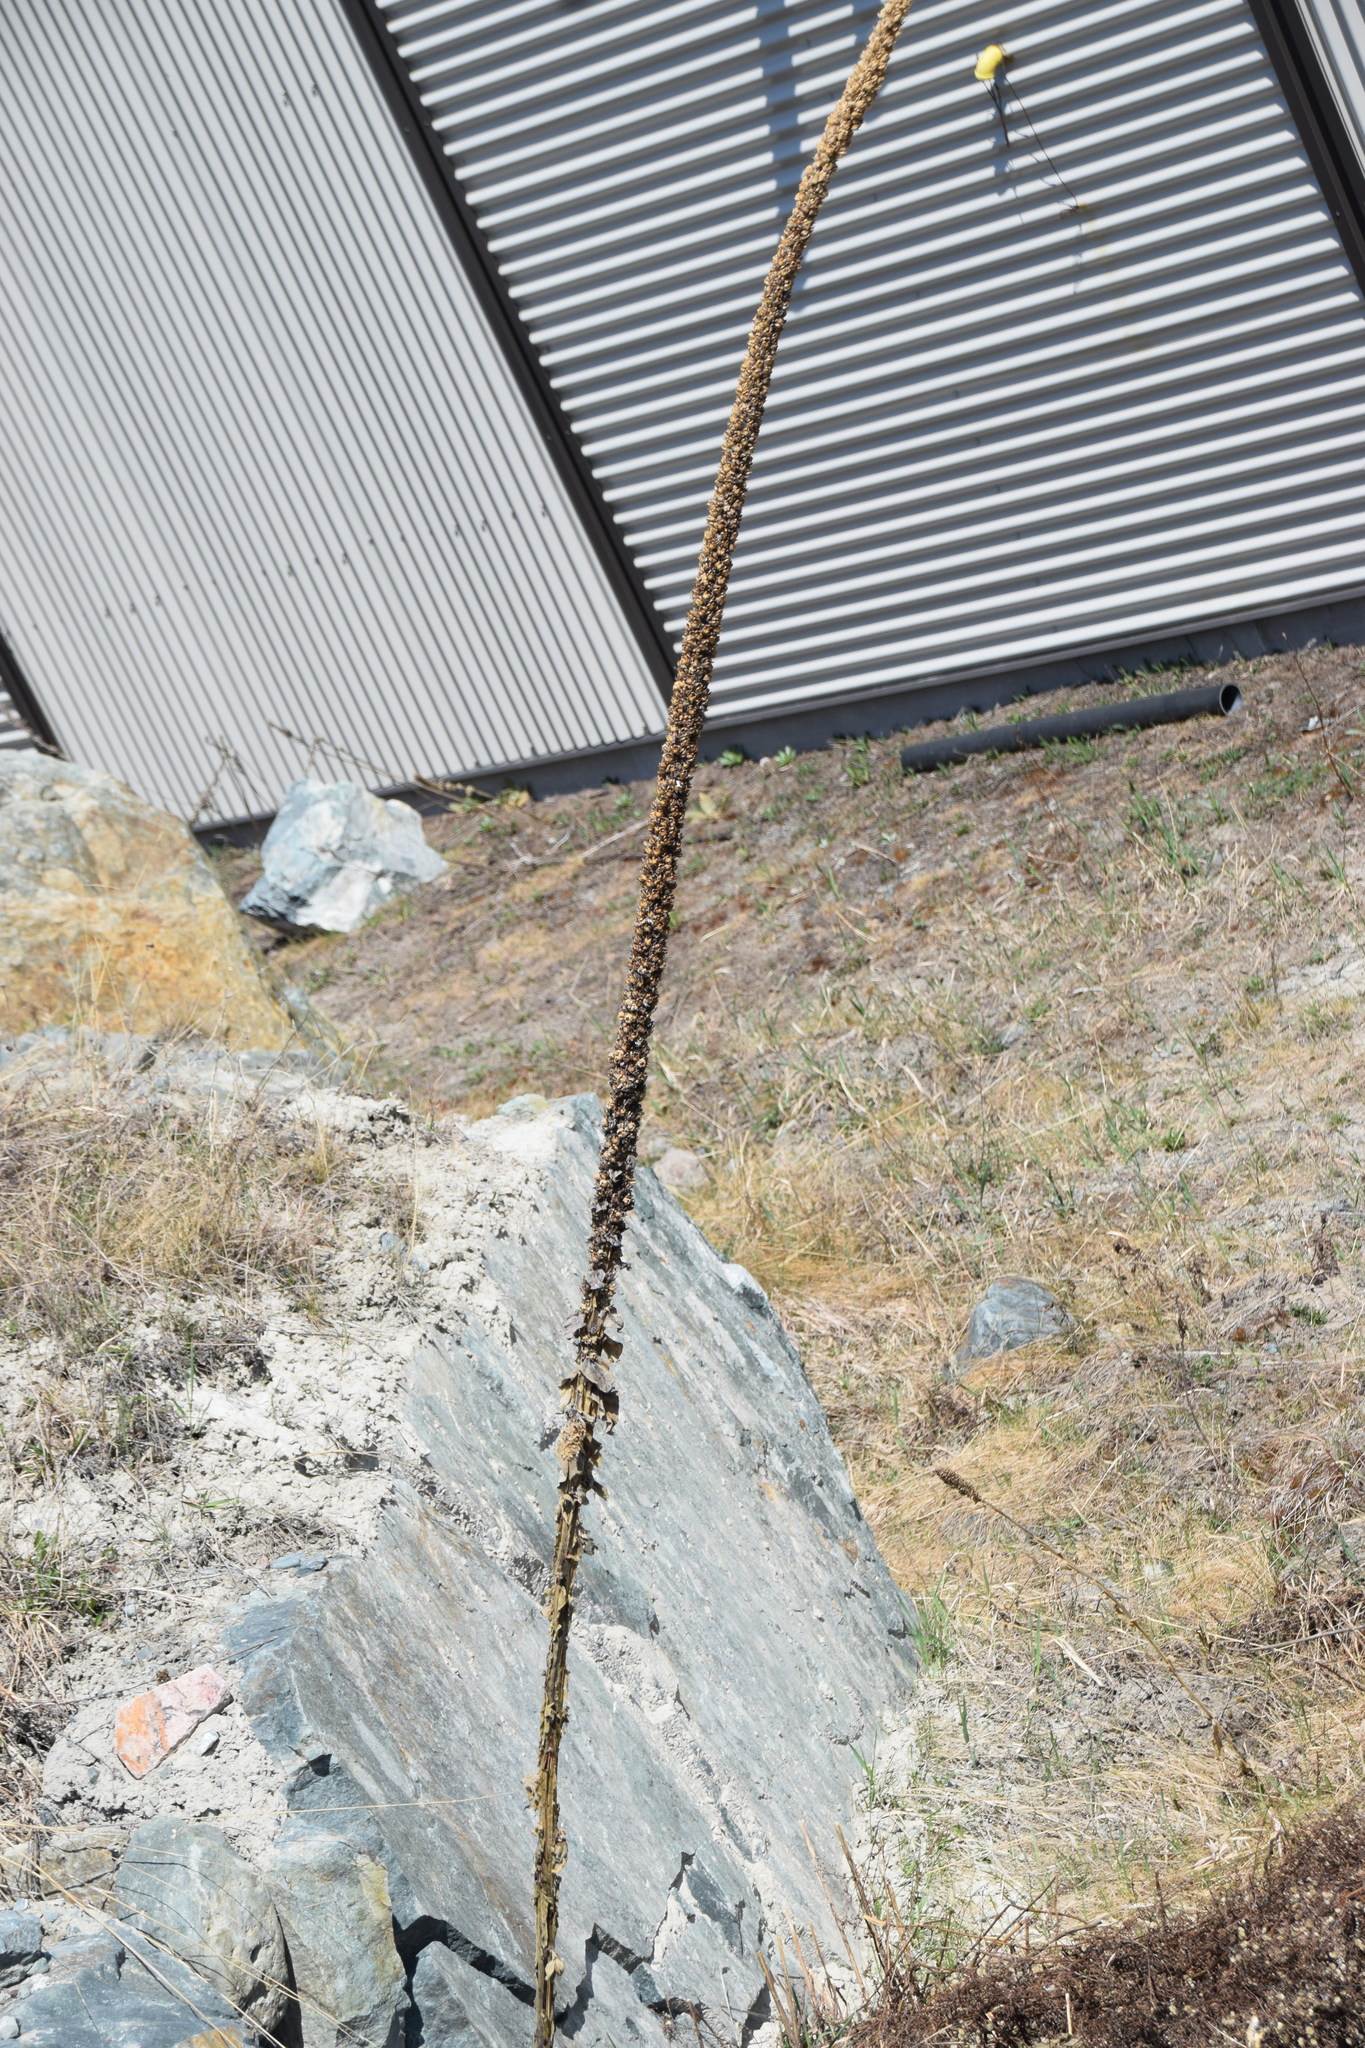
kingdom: Plantae
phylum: Tracheophyta
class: Magnoliopsida
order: Lamiales
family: Scrophulariaceae
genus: Verbascum
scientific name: Verbascum thapsus
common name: Common mullein
